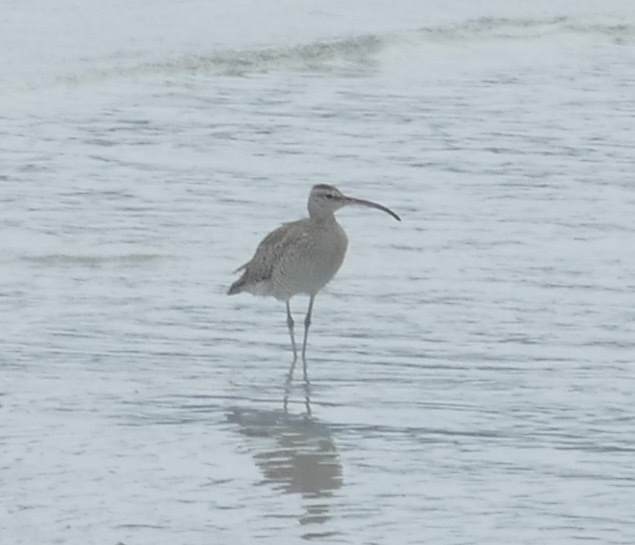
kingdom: Animalia
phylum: Chordata
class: Aves
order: Charadriiformes
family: Scolopacidae
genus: Numenius
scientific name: Numenius phaeopus
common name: Whimbrel
